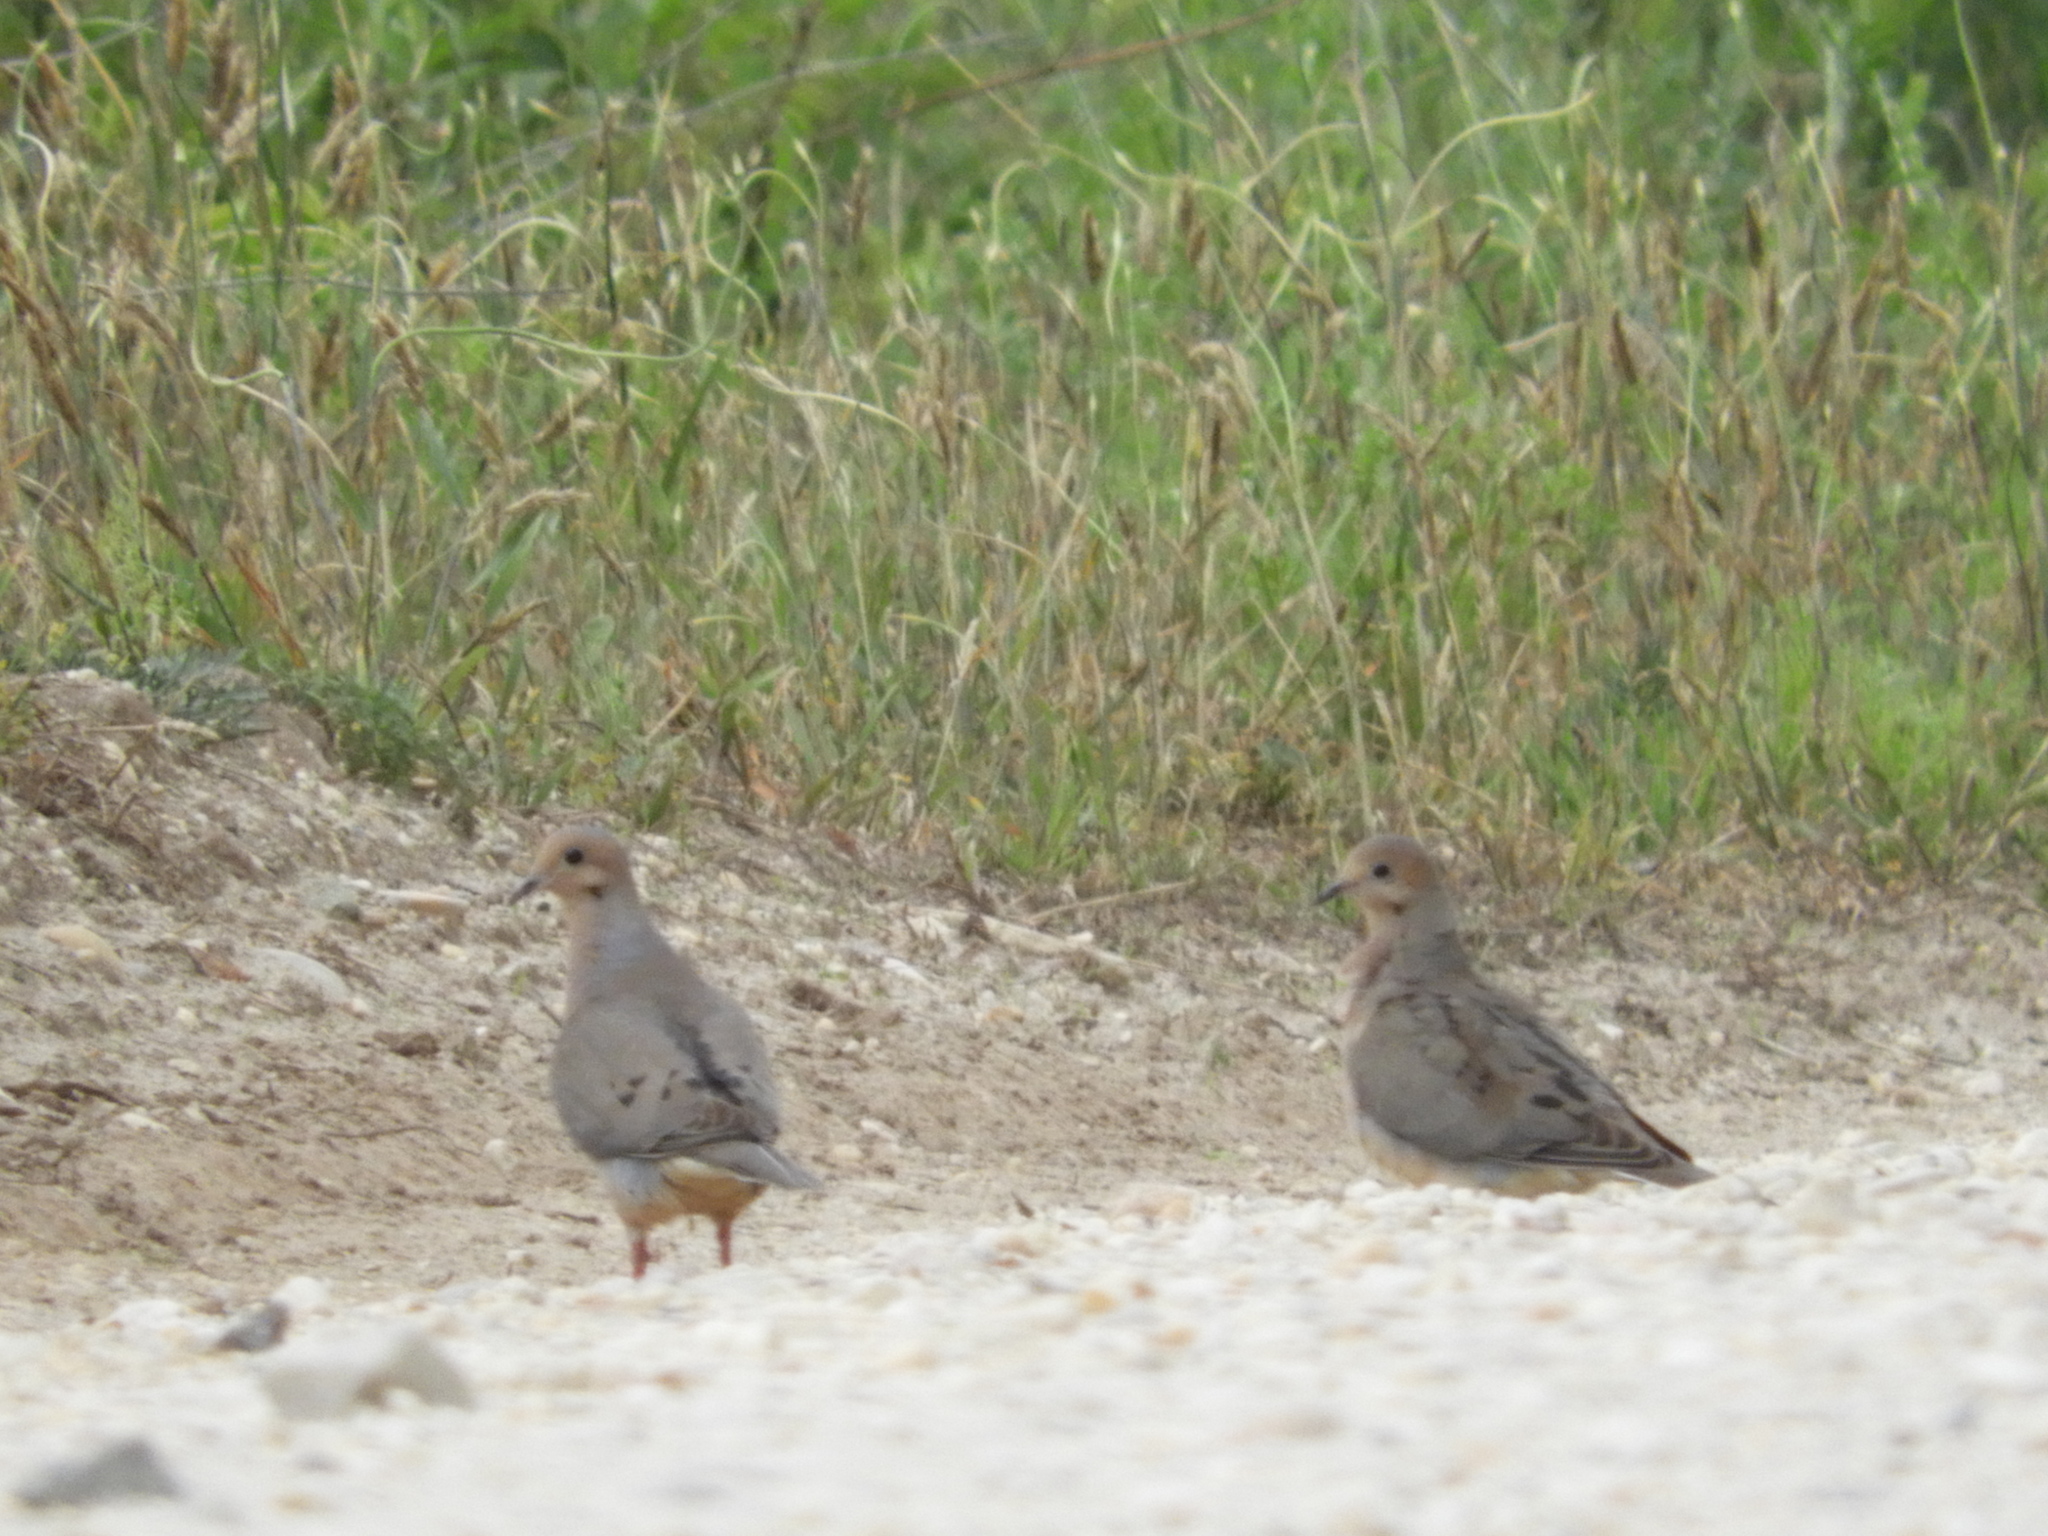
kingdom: Animalia
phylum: Chordata
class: Aves
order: Columbiformes
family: Columbidae
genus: Zenaida
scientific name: Zenaida macroura
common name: Mourning dove
